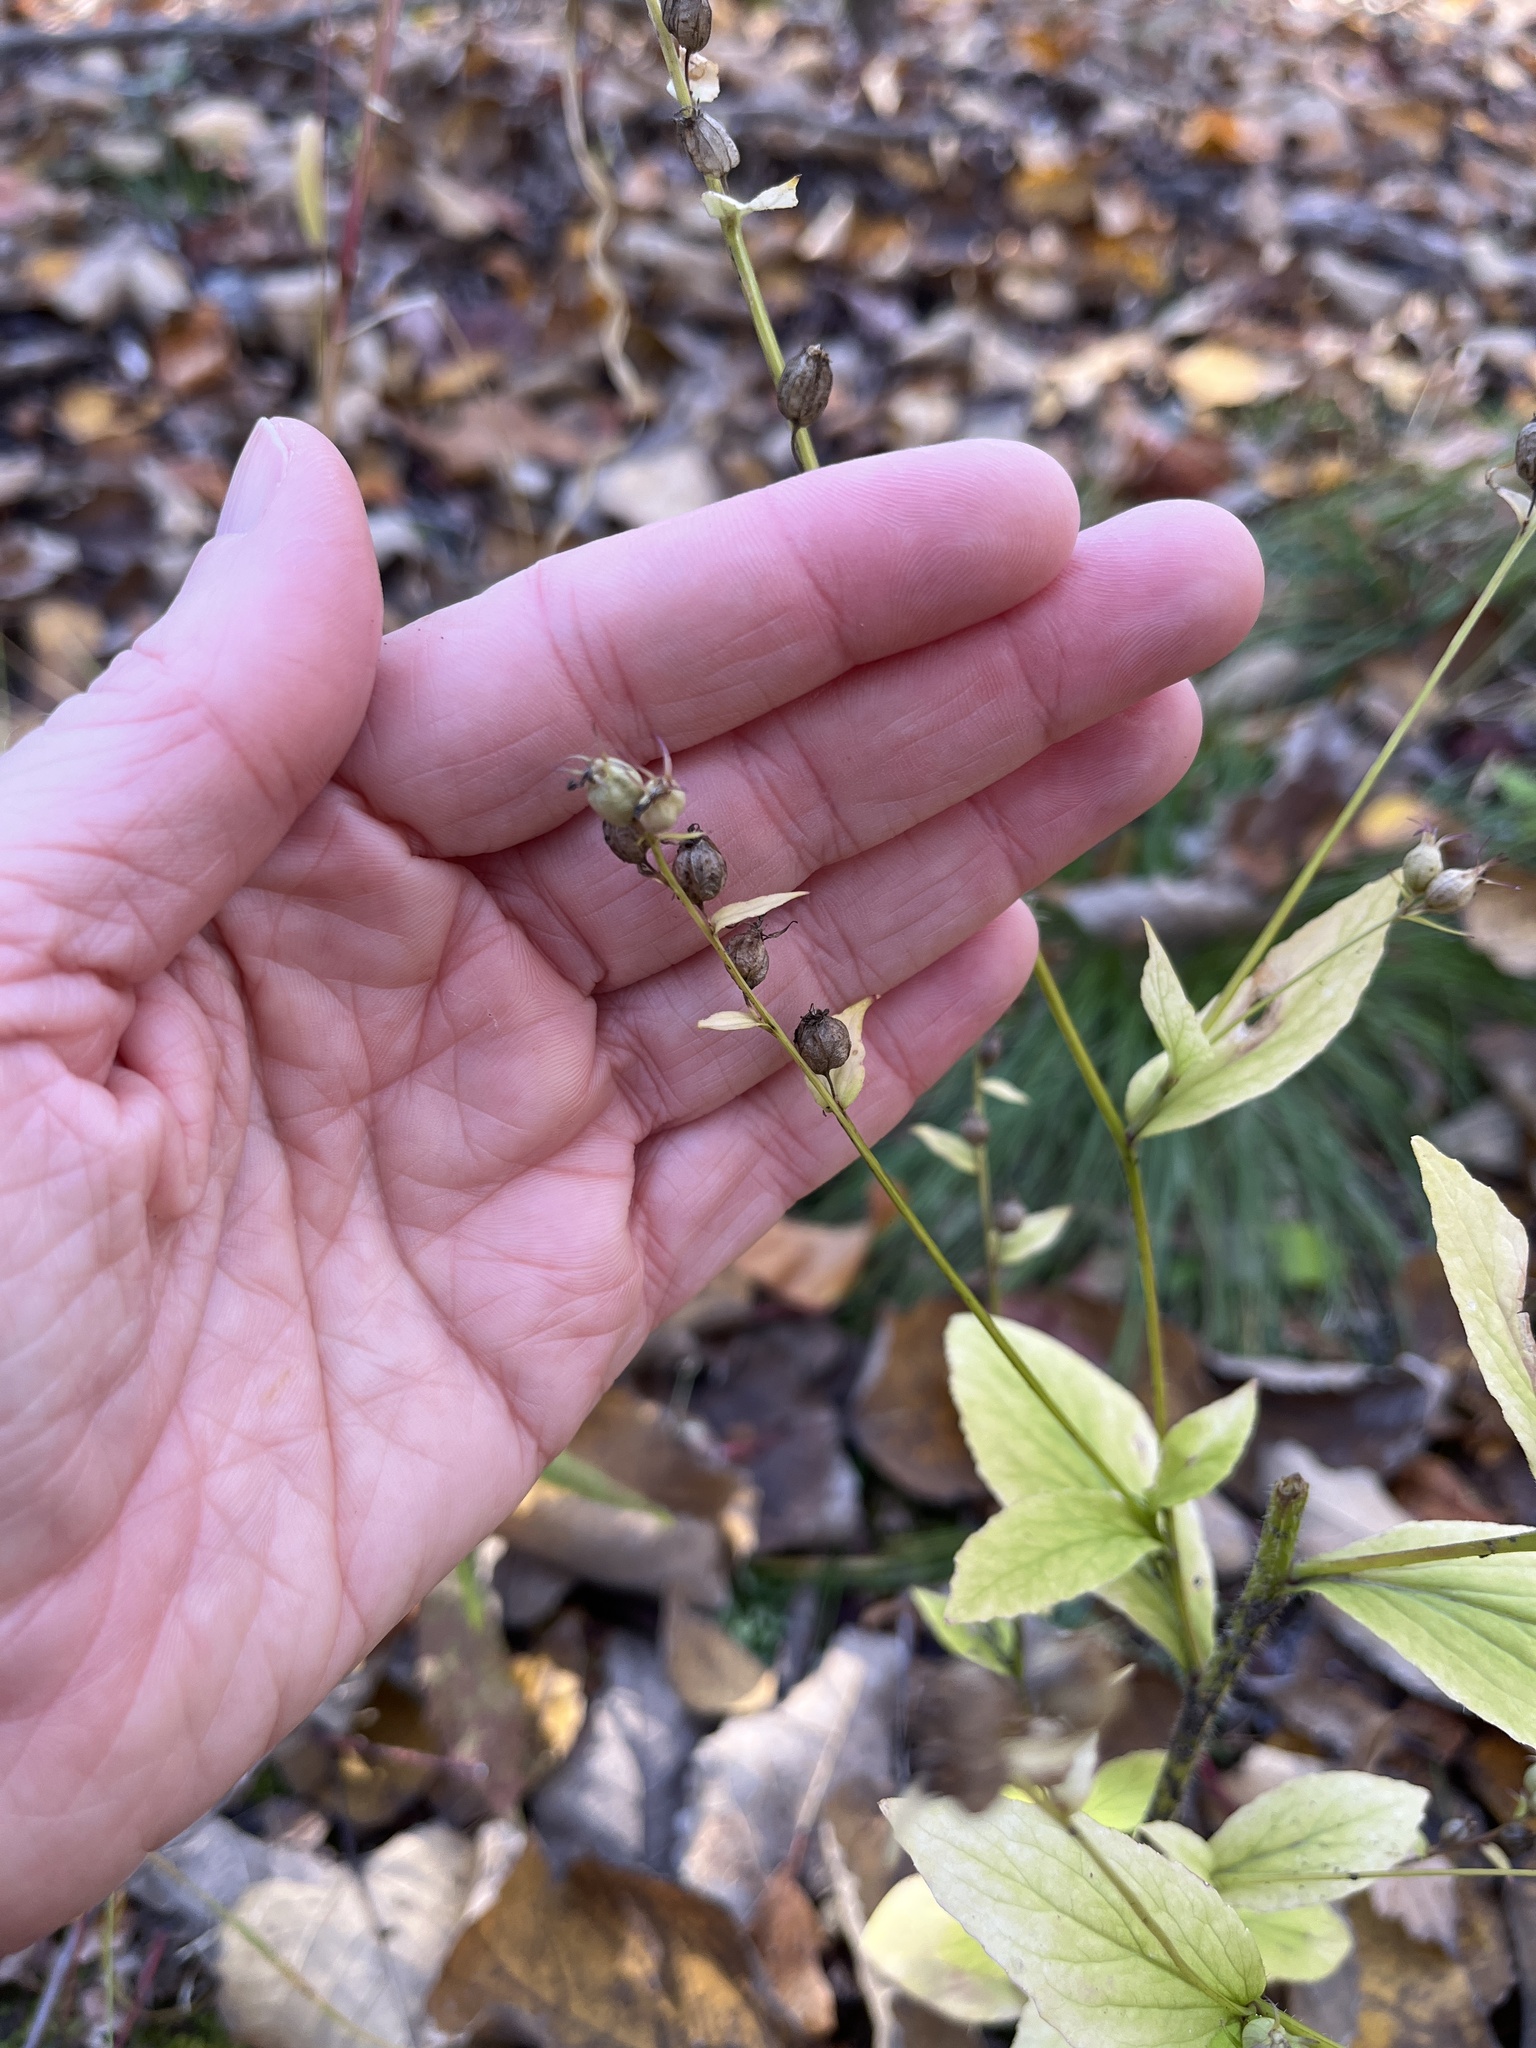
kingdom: Plantae
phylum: Tracheophyta
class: Magnoliopsida
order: Asterales
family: Campanulaceae
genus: Lobelia
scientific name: Lobelia inflata
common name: Indian tobacco
